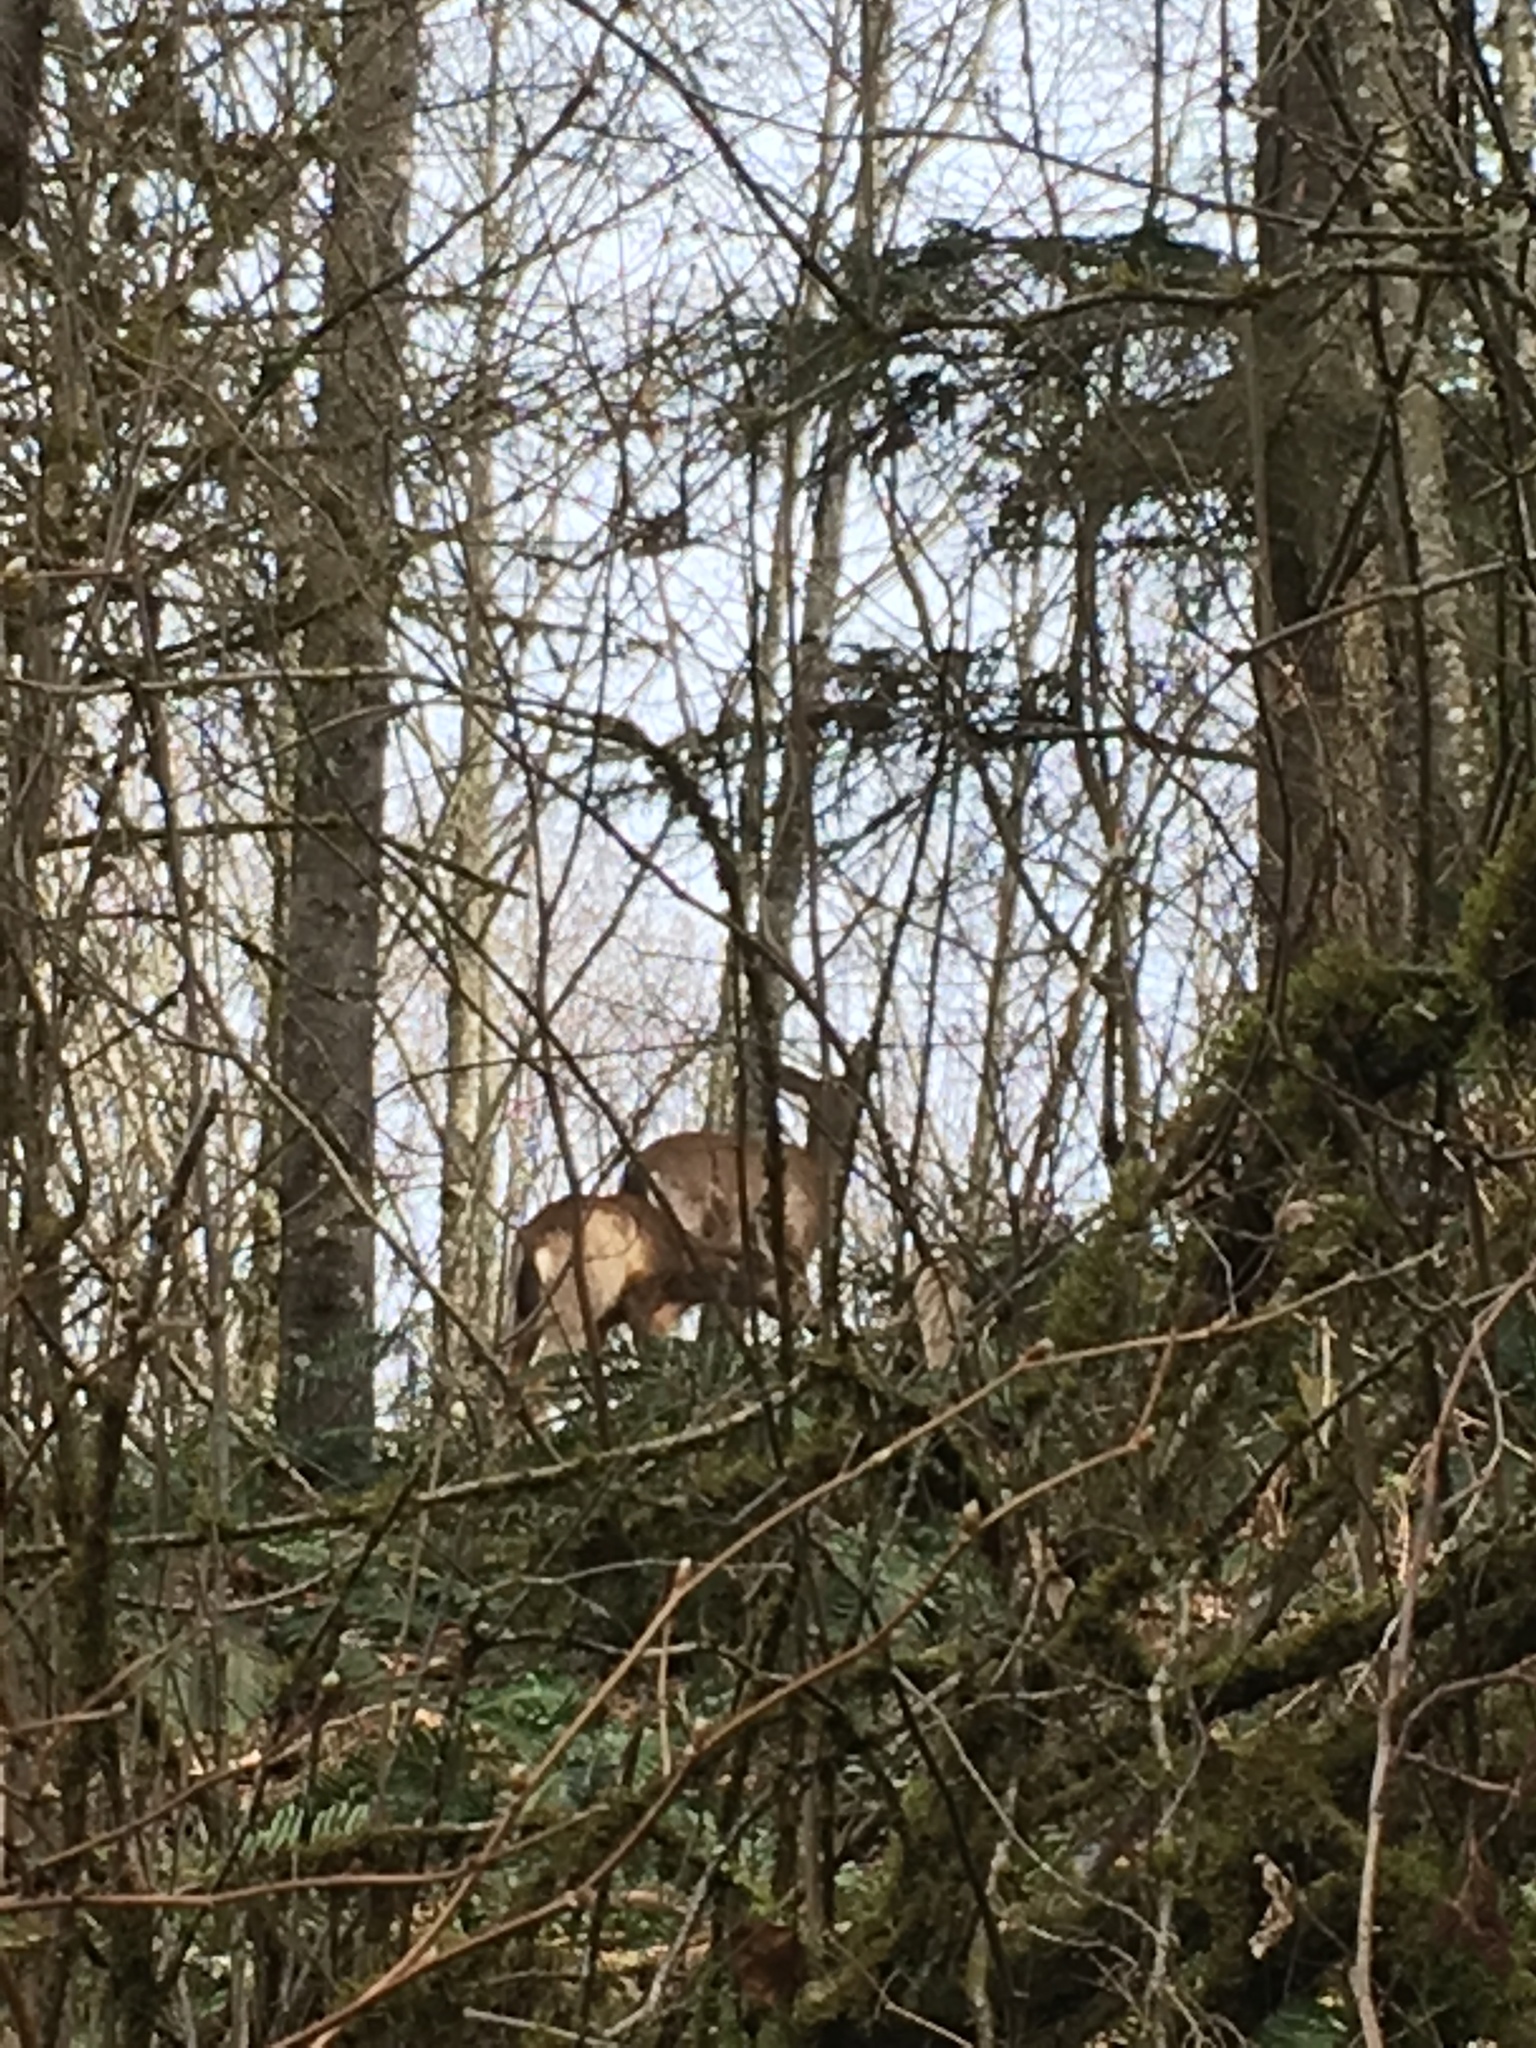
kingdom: Animalia
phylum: Chordata
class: Mammalia
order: Artiodactyla
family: Cervidae
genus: Odocoileus
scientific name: Odocoileus hemionus
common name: Mule deer
